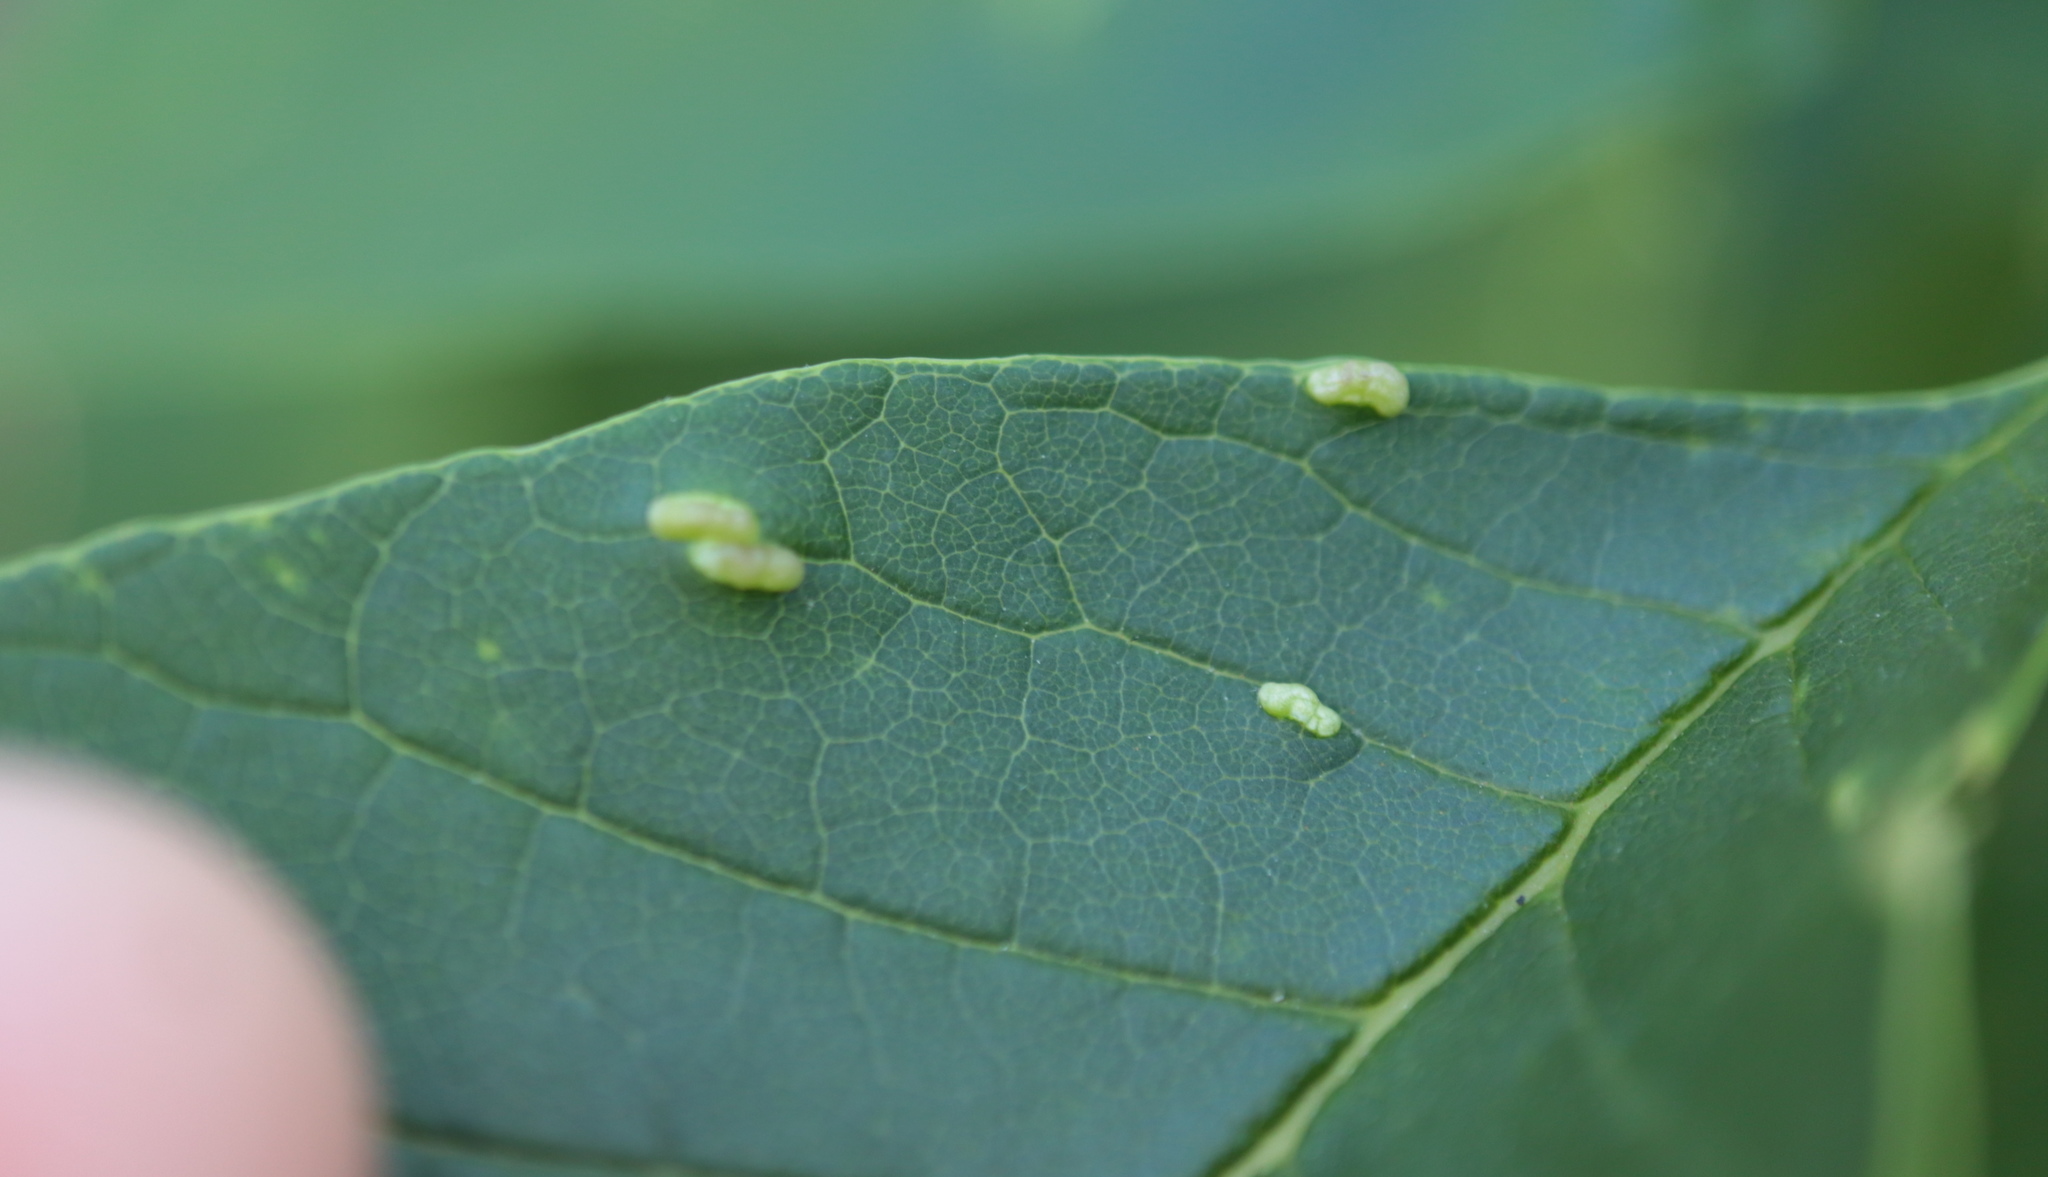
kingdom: Animalia
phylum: Arthropoda
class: Arachnida
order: Trombidiformes
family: Eriophyidae
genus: Aceria
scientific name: Aceria fraxinicola
